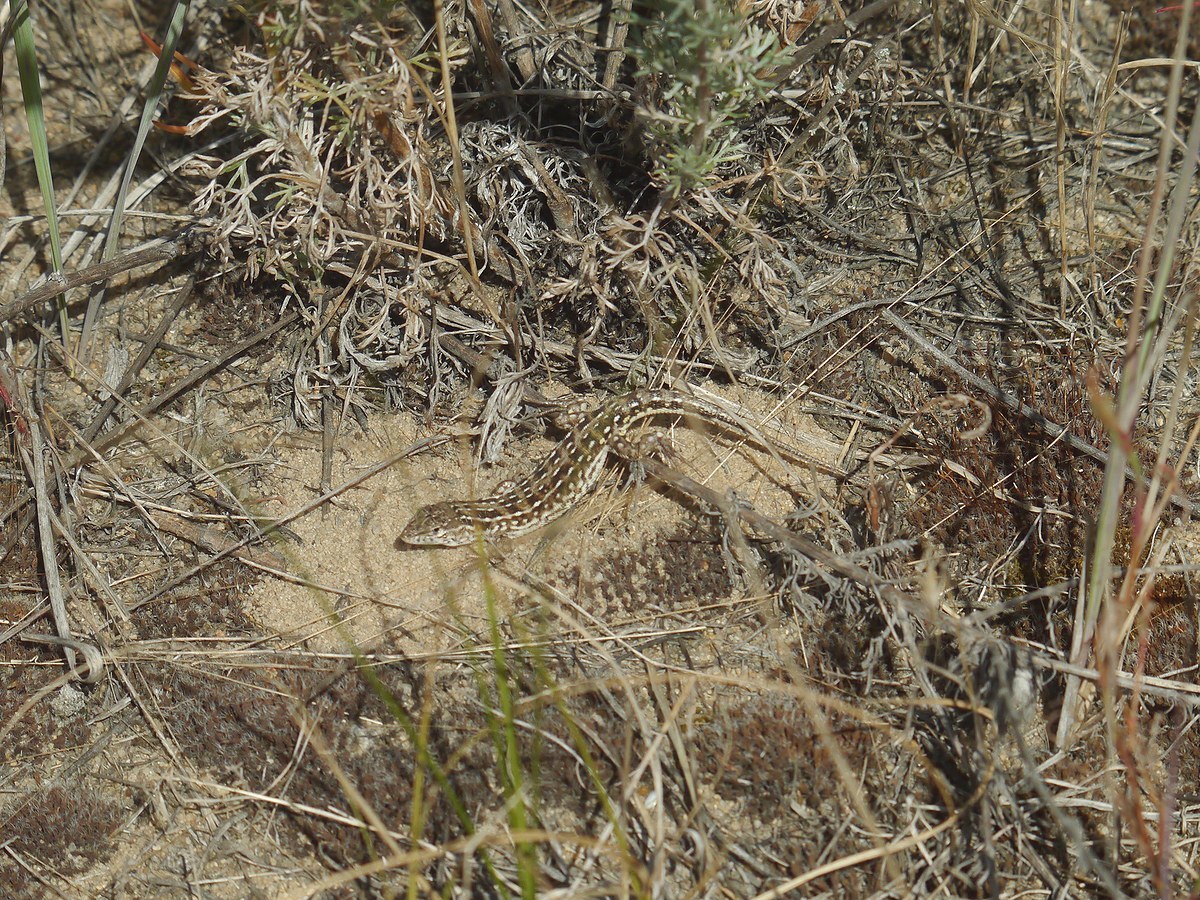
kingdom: Animalia
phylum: Chordata
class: Squamata
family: Lacertidae
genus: Eremias
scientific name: Eremias arguta
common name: Racerunner
